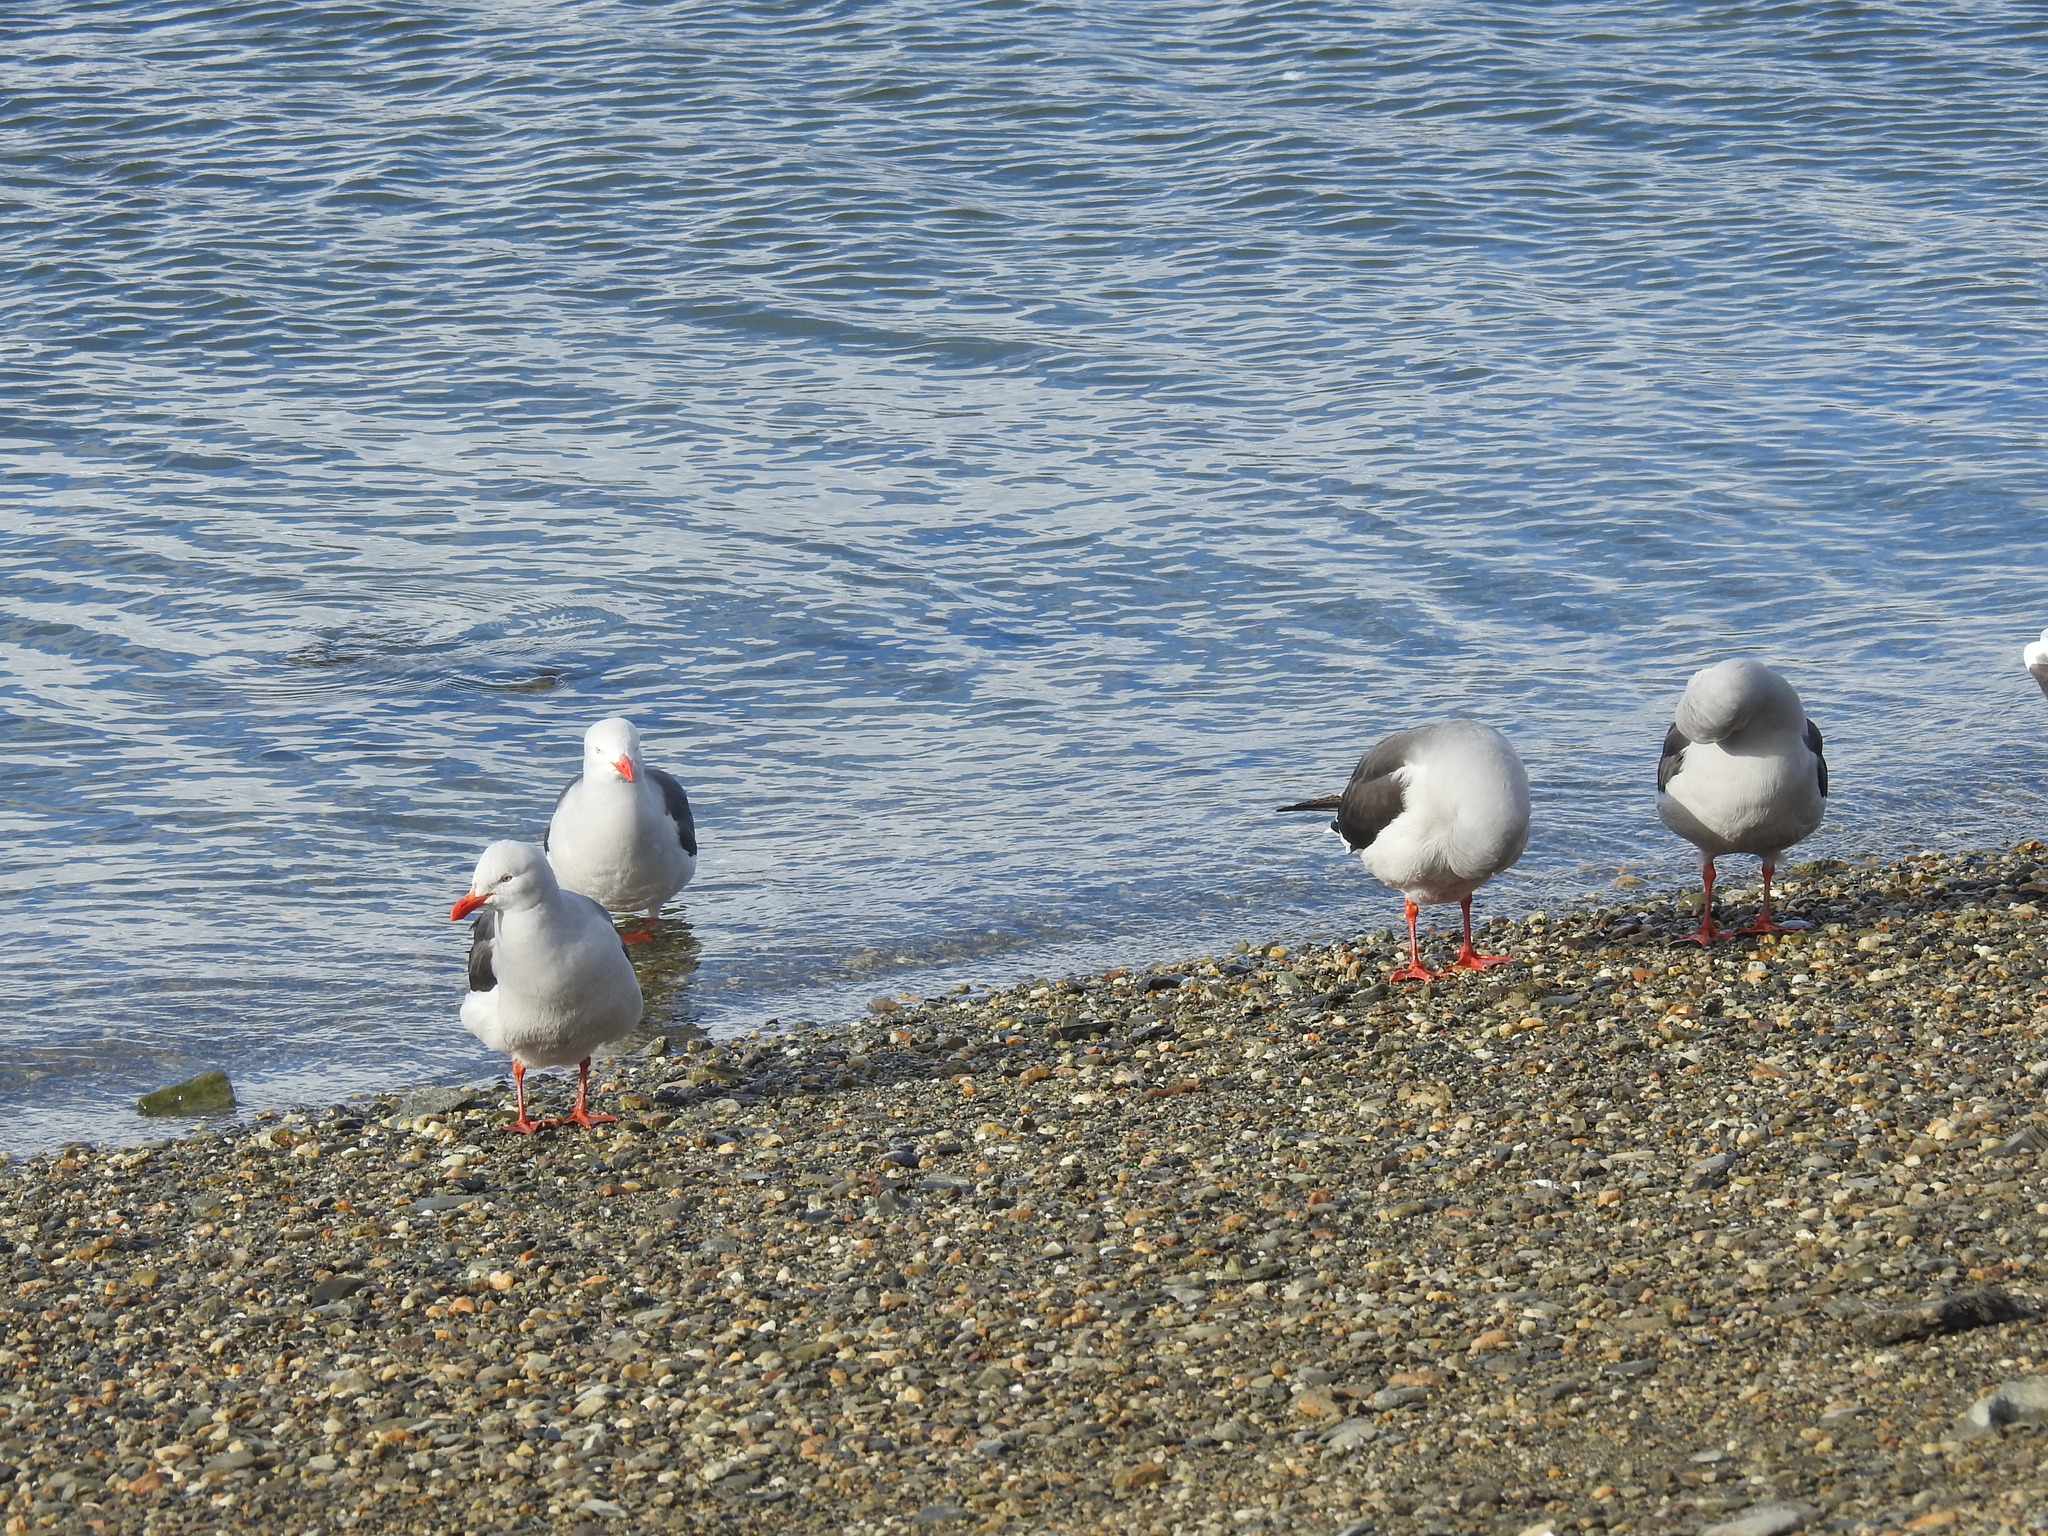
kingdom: Animalia
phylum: Chordata
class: Aves
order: Charadriiformes
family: Laridae
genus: Leucophaeus
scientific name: Leucophaeus scoresbii
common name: Dolphin gull
